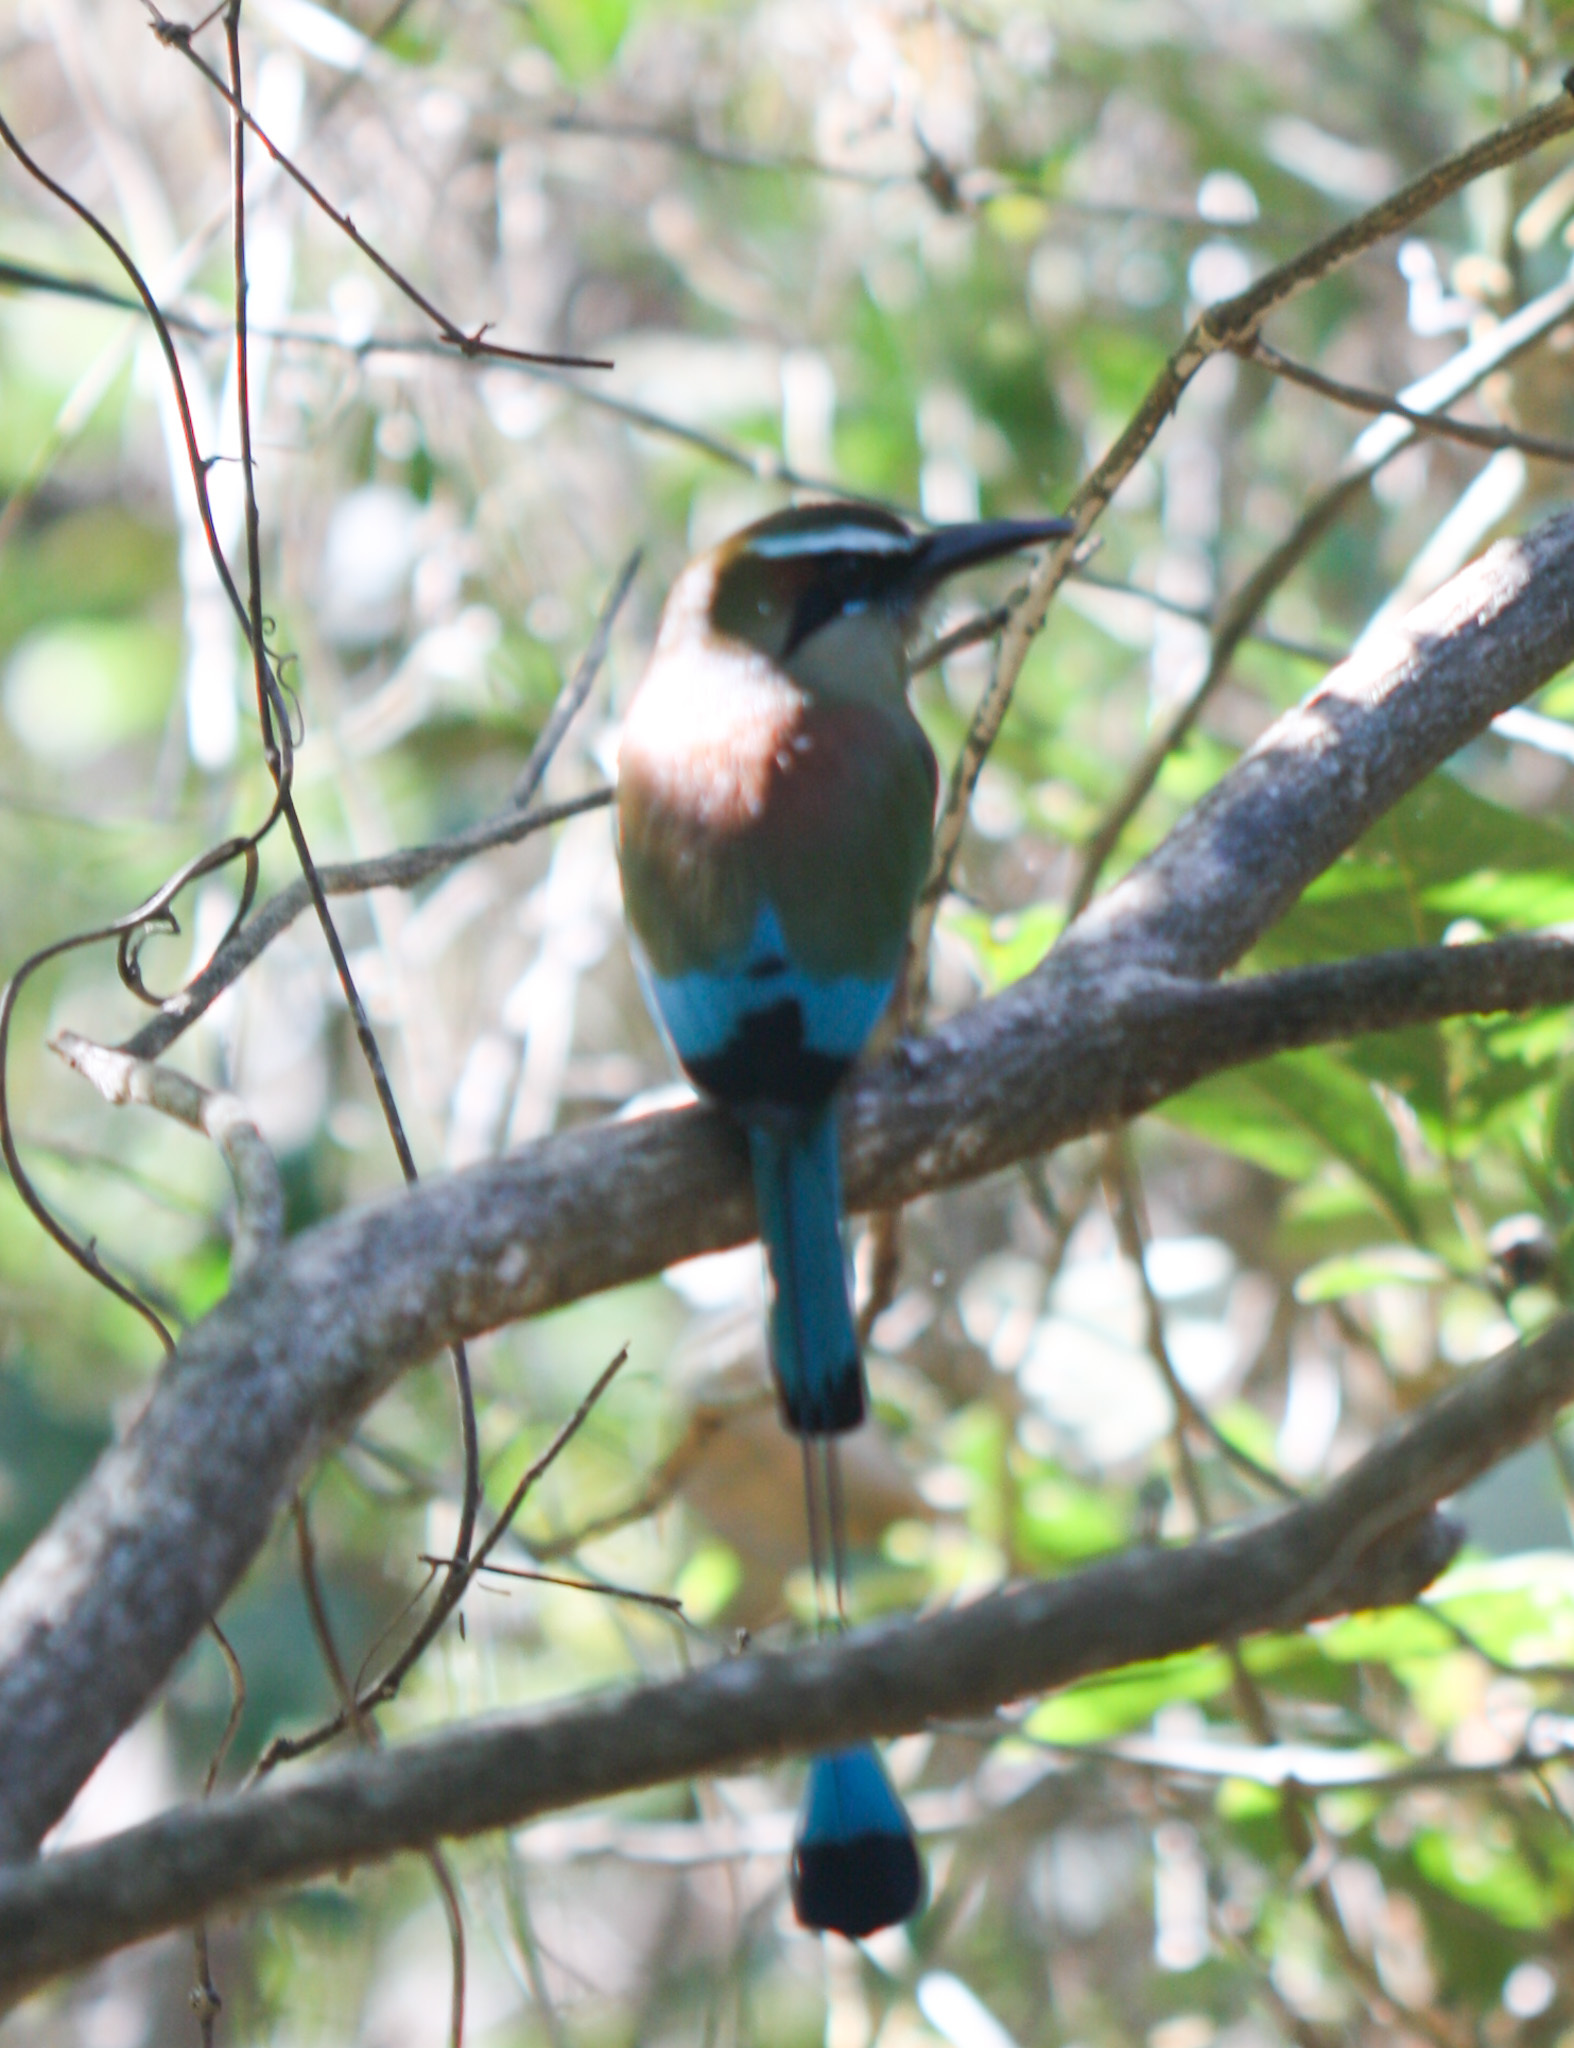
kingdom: Animalia
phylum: Chordata
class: Aves
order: Coraciiformes
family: Momotidae
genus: Eumomota
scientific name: Eumomota superciliosa
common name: Turquoise-browed motmot
